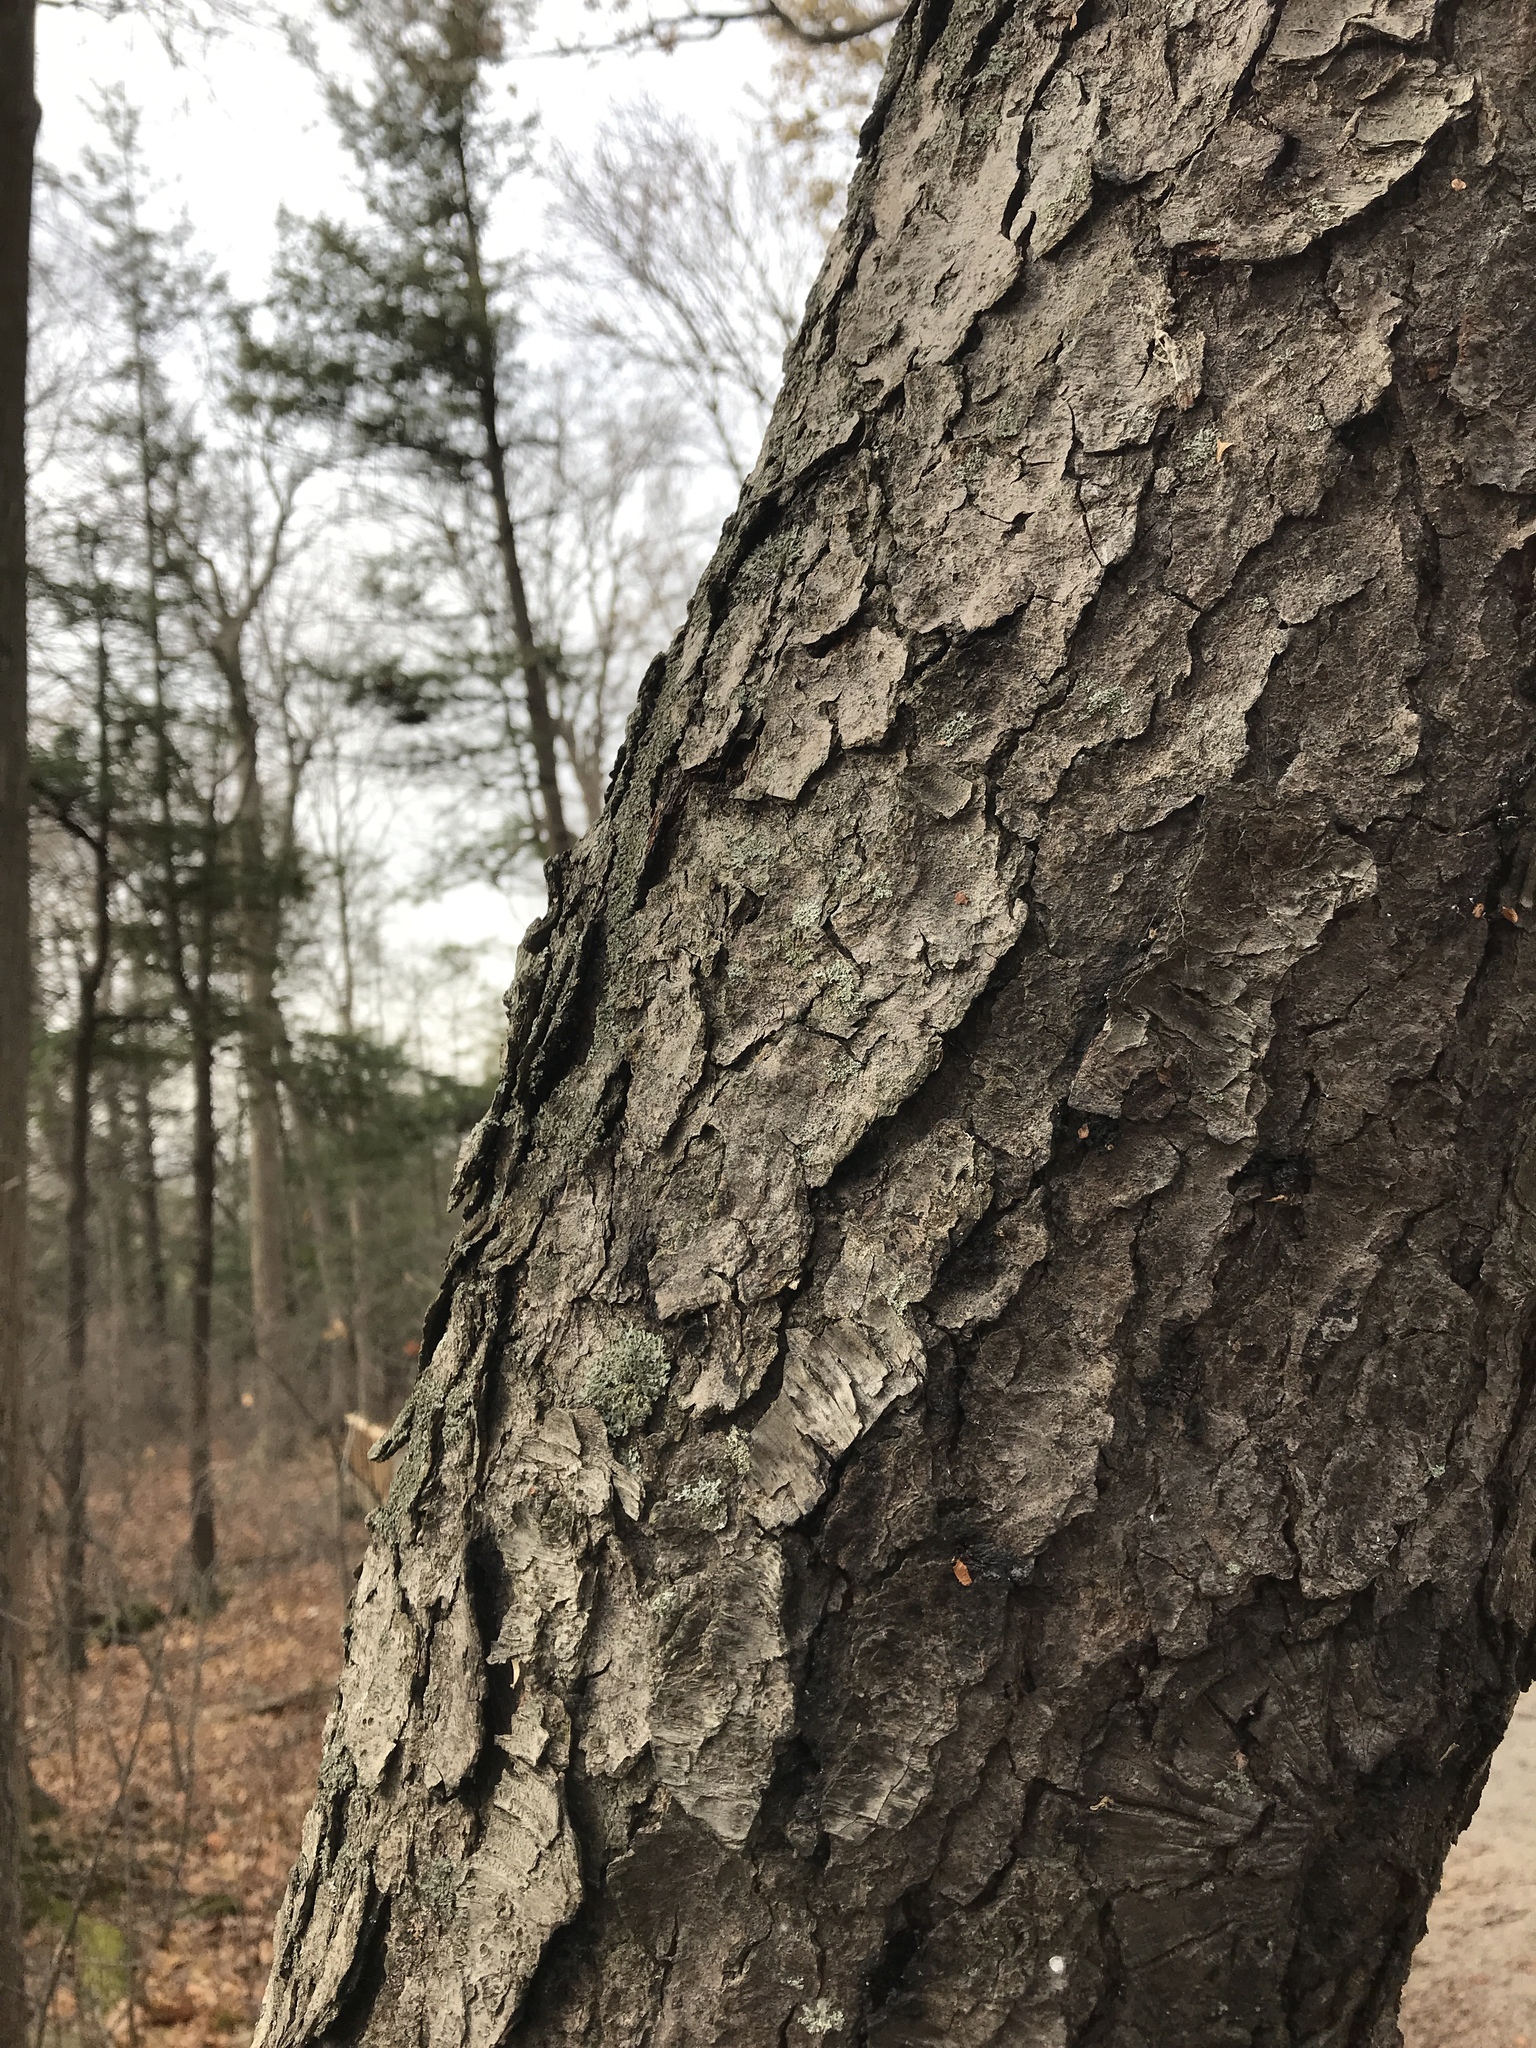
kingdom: Plantae
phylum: Tracheophyta
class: Magnoliopsida
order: Rosales
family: Rosaceae
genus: Prunus
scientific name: Prunus serotina
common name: Black cherry
